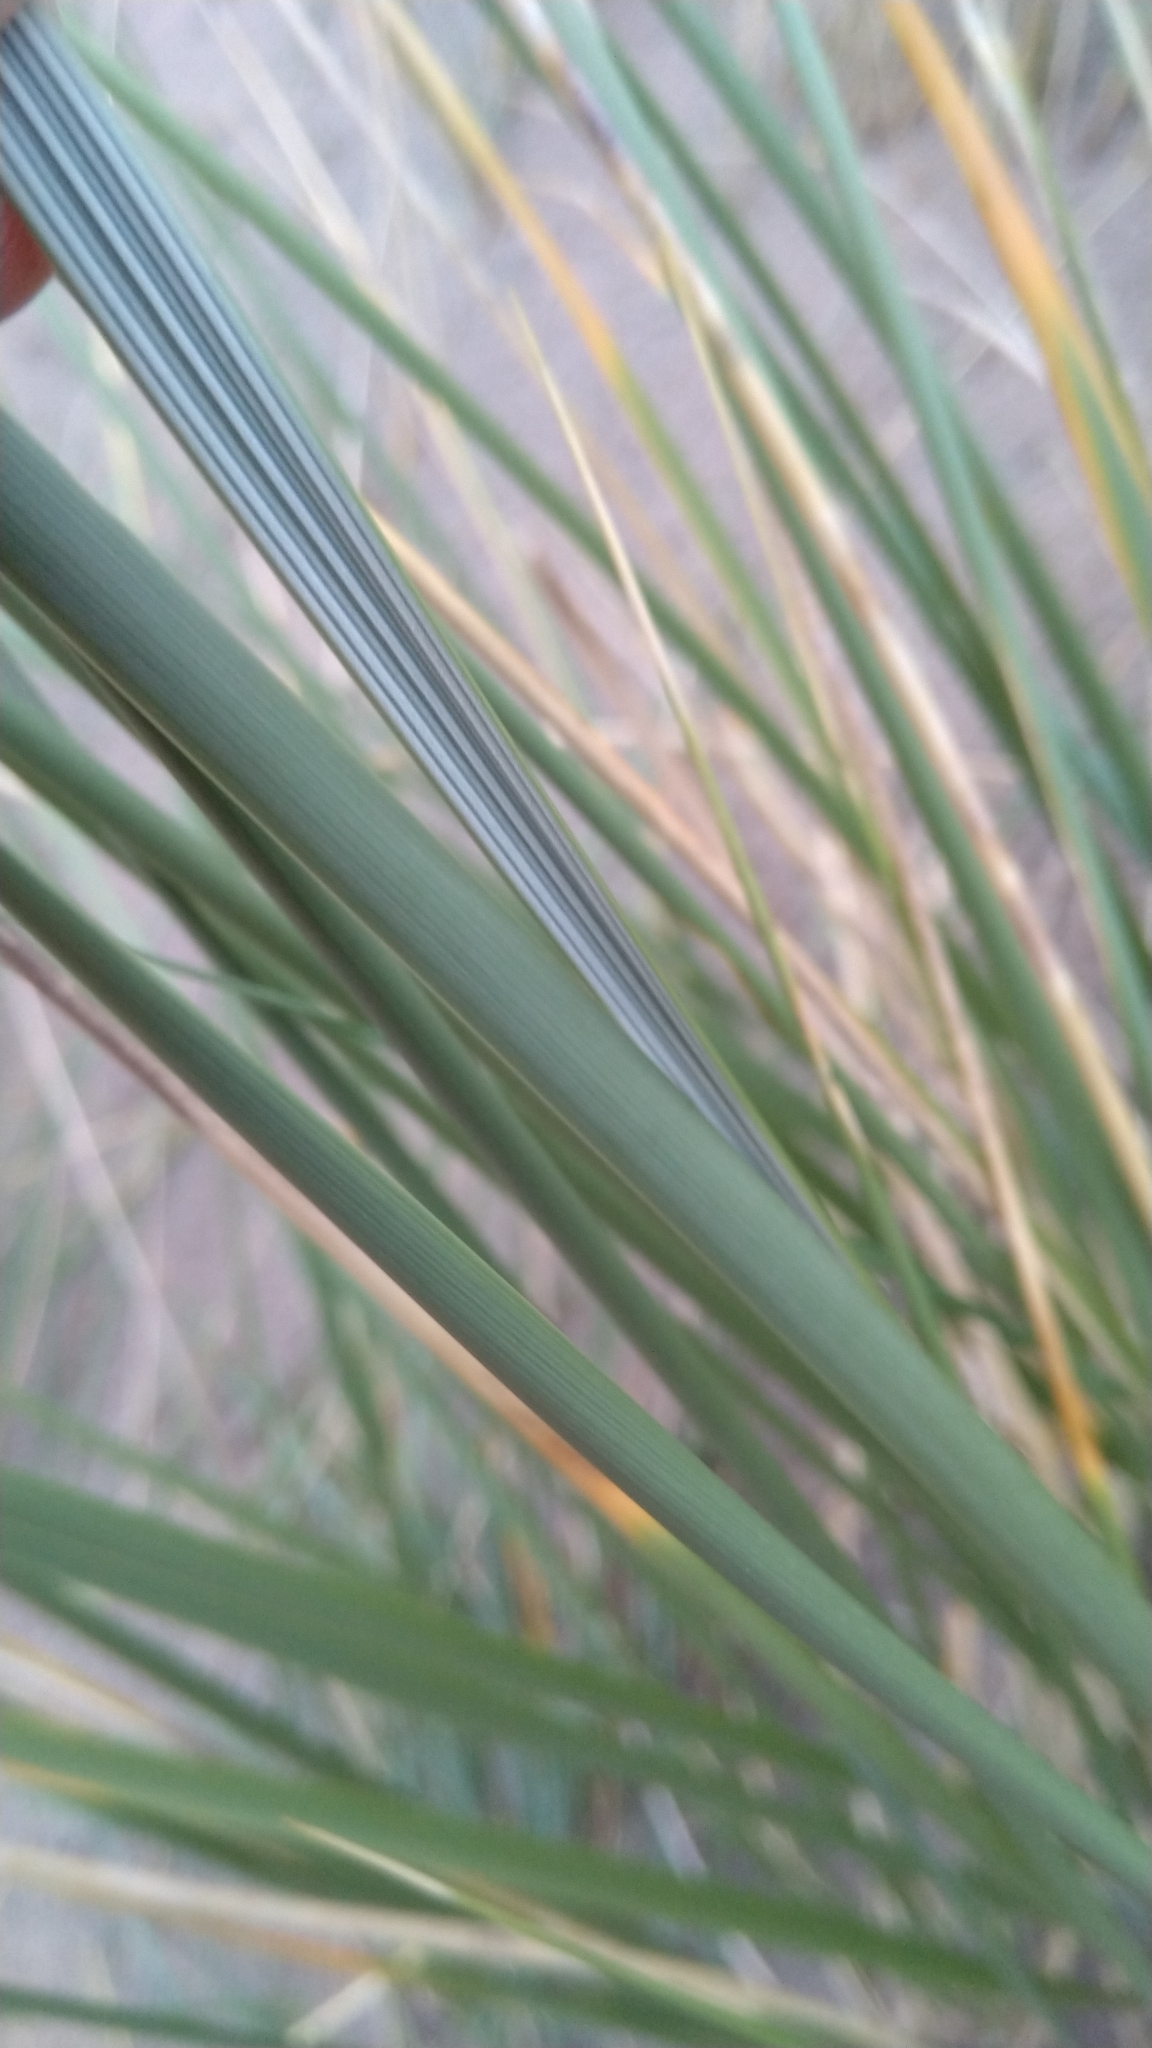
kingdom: Plantae
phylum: Tracheophyta
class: Liliopsida
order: Poales
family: Poaceae
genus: Calamagrostis
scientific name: Calamagrostis arenaria
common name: European beachgrass
